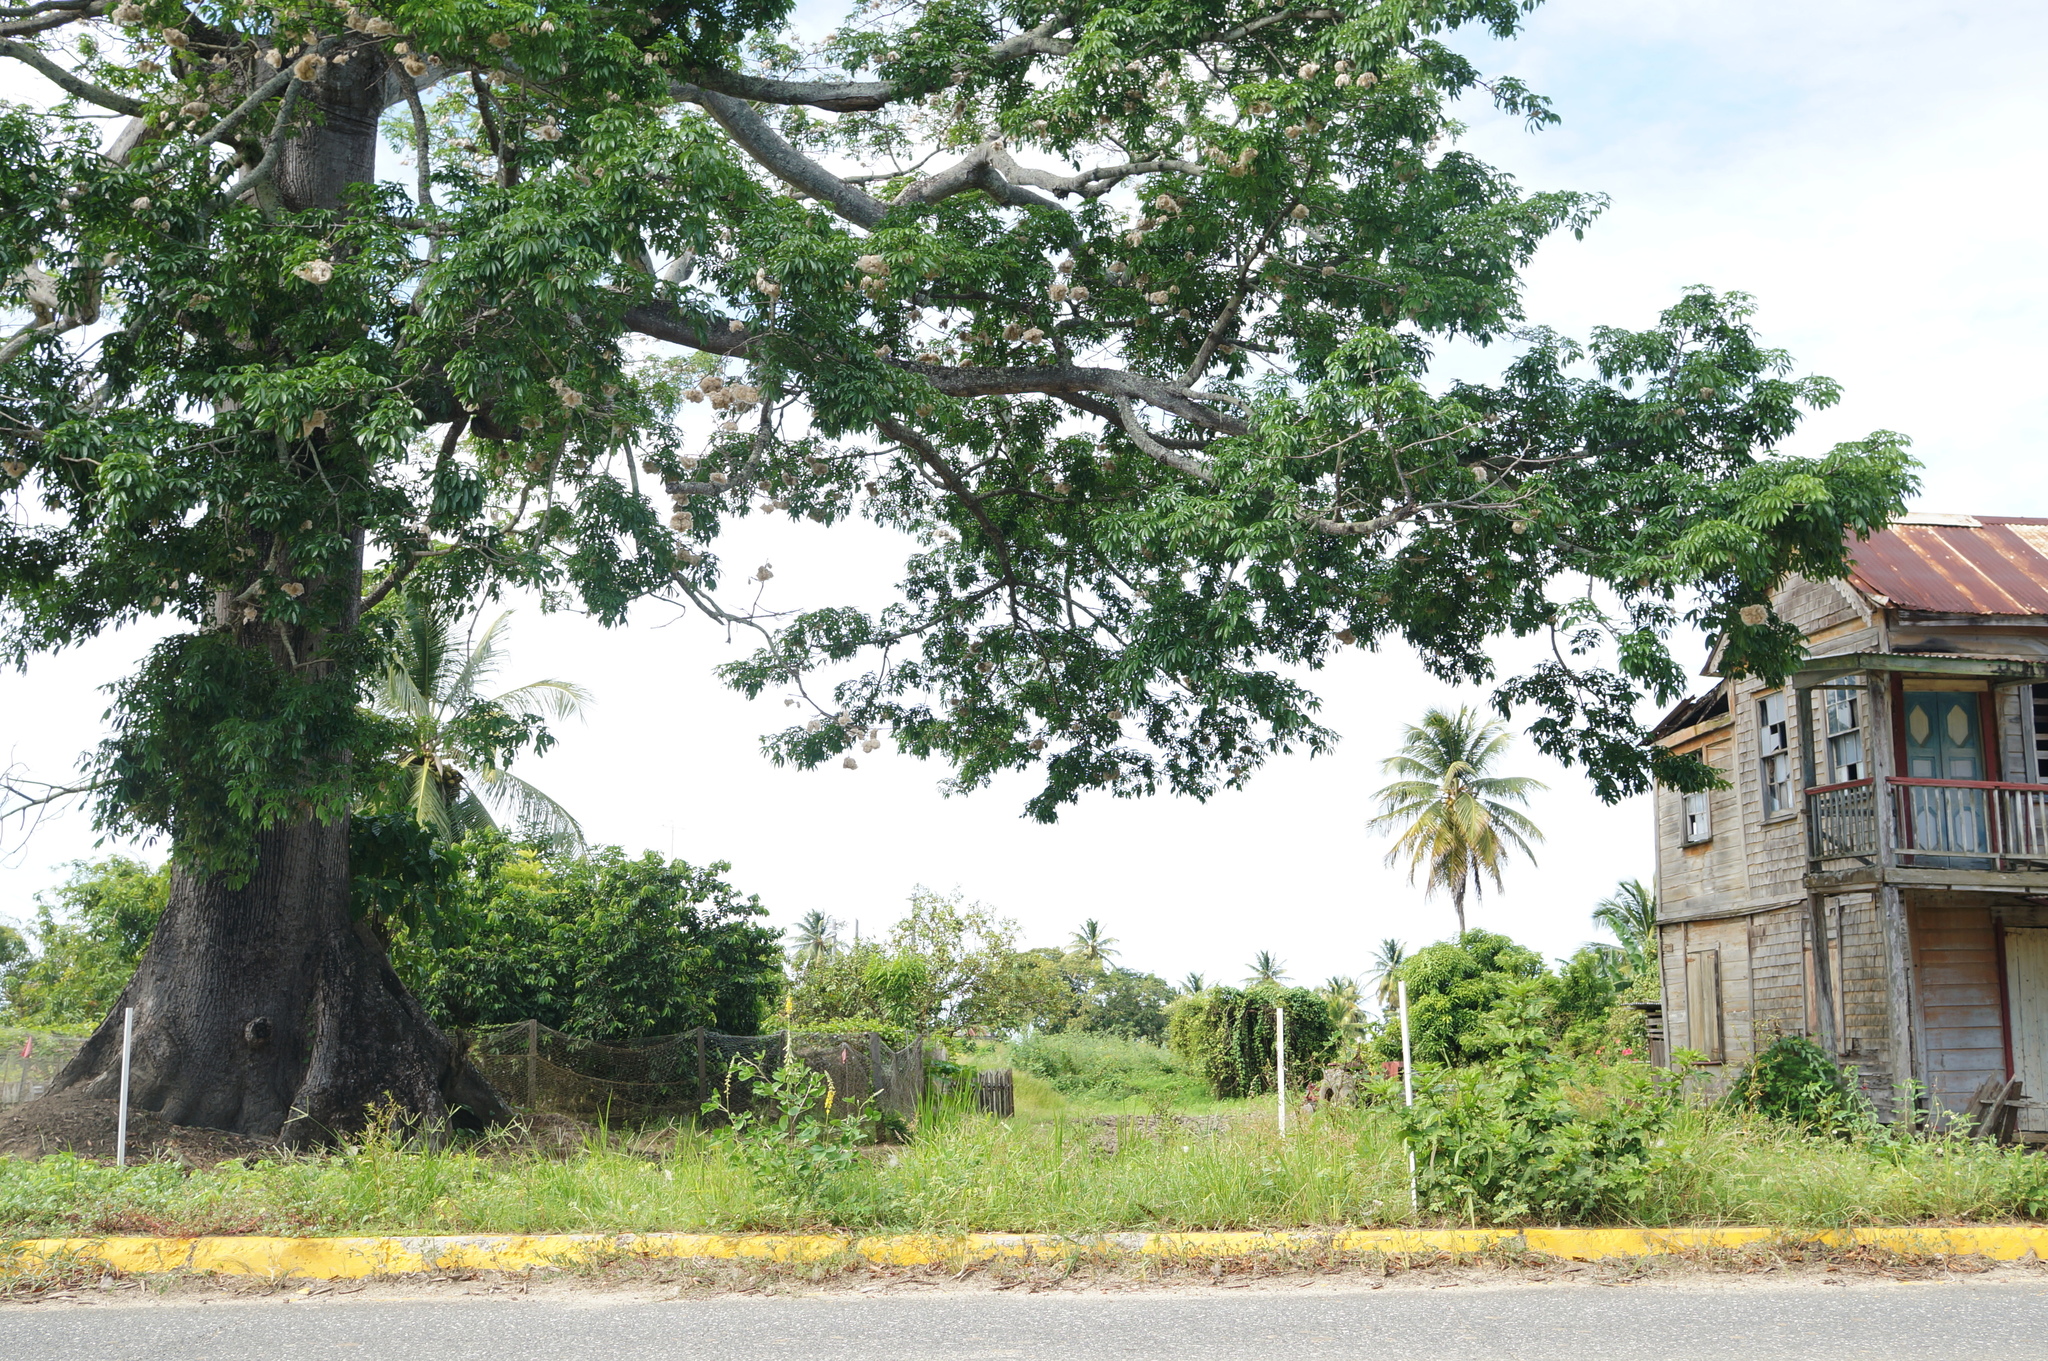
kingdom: Plantae
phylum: Tracheophyta
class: Magnoliopsida
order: Malvales
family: Malvaceae
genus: Ceiba
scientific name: Ceiba pentandra
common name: Kapok
